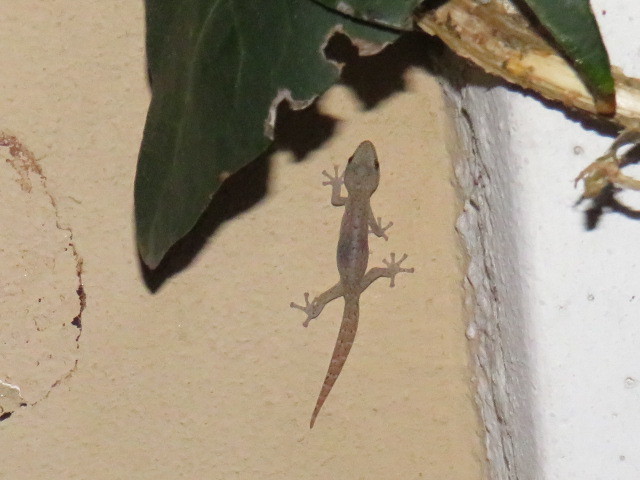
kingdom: Animalia
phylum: Chordata
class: Squamata
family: Gekkonidae
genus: Afrogecko
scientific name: Afrogecko porphyreus
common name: Marbled leaf-toed gecko
